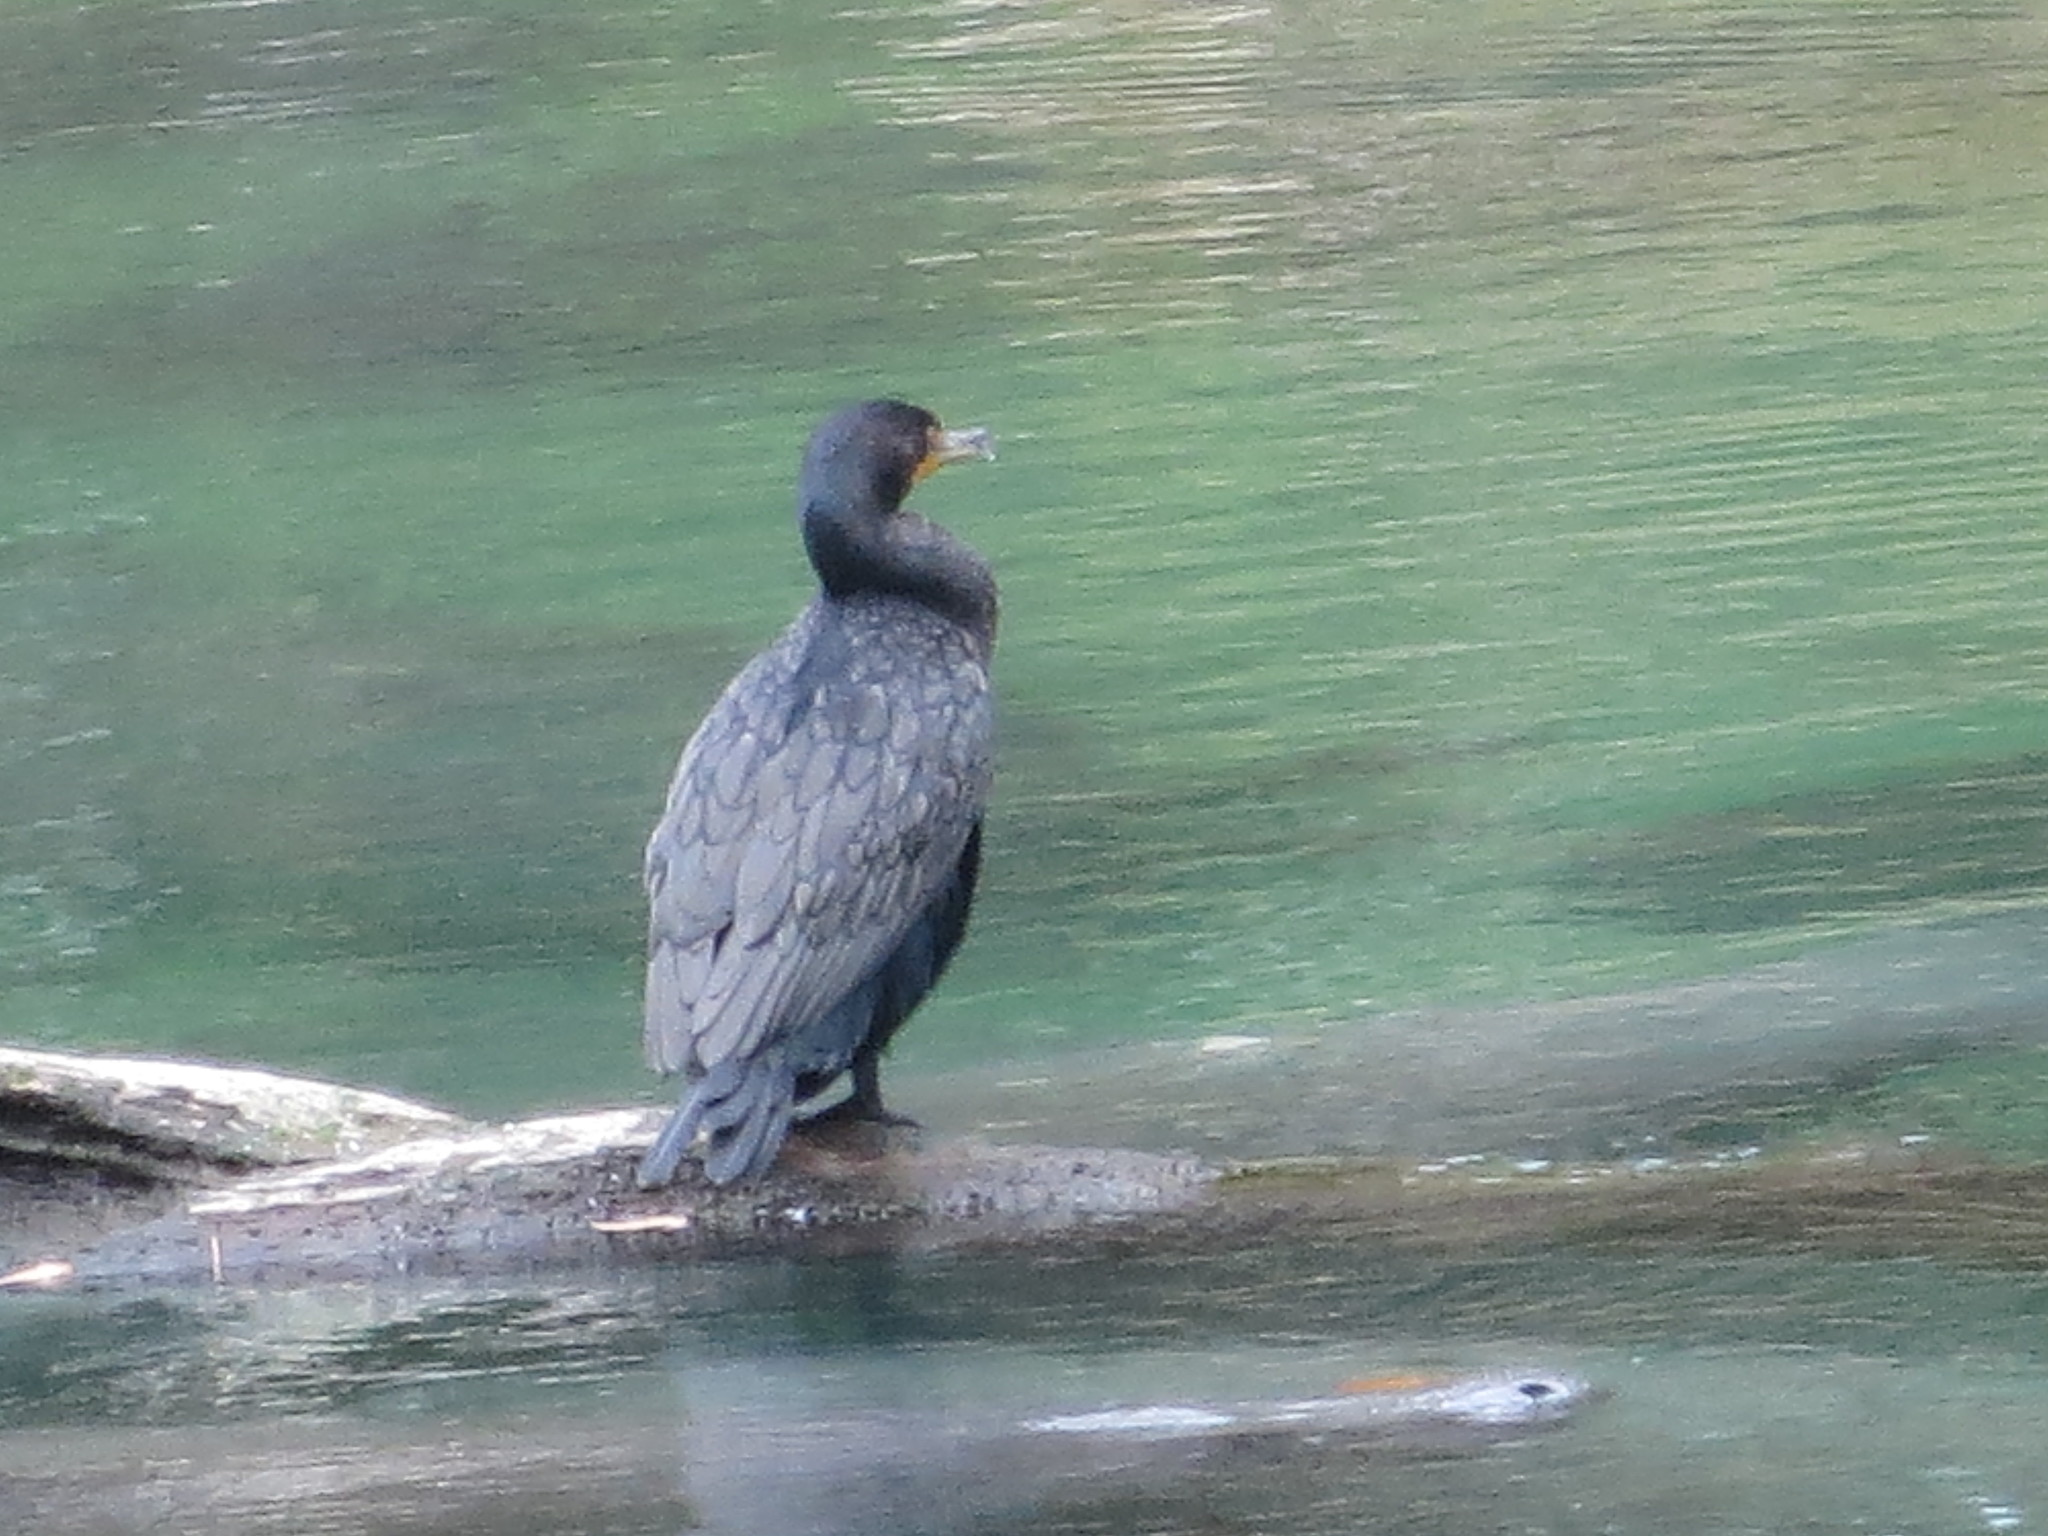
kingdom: Animalia
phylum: Chordata
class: Aves
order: Suliformes
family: Phalacrocoracidae
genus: Phalacrocorax
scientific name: Phalacrocorax auritus
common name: Double-crested cormorant
